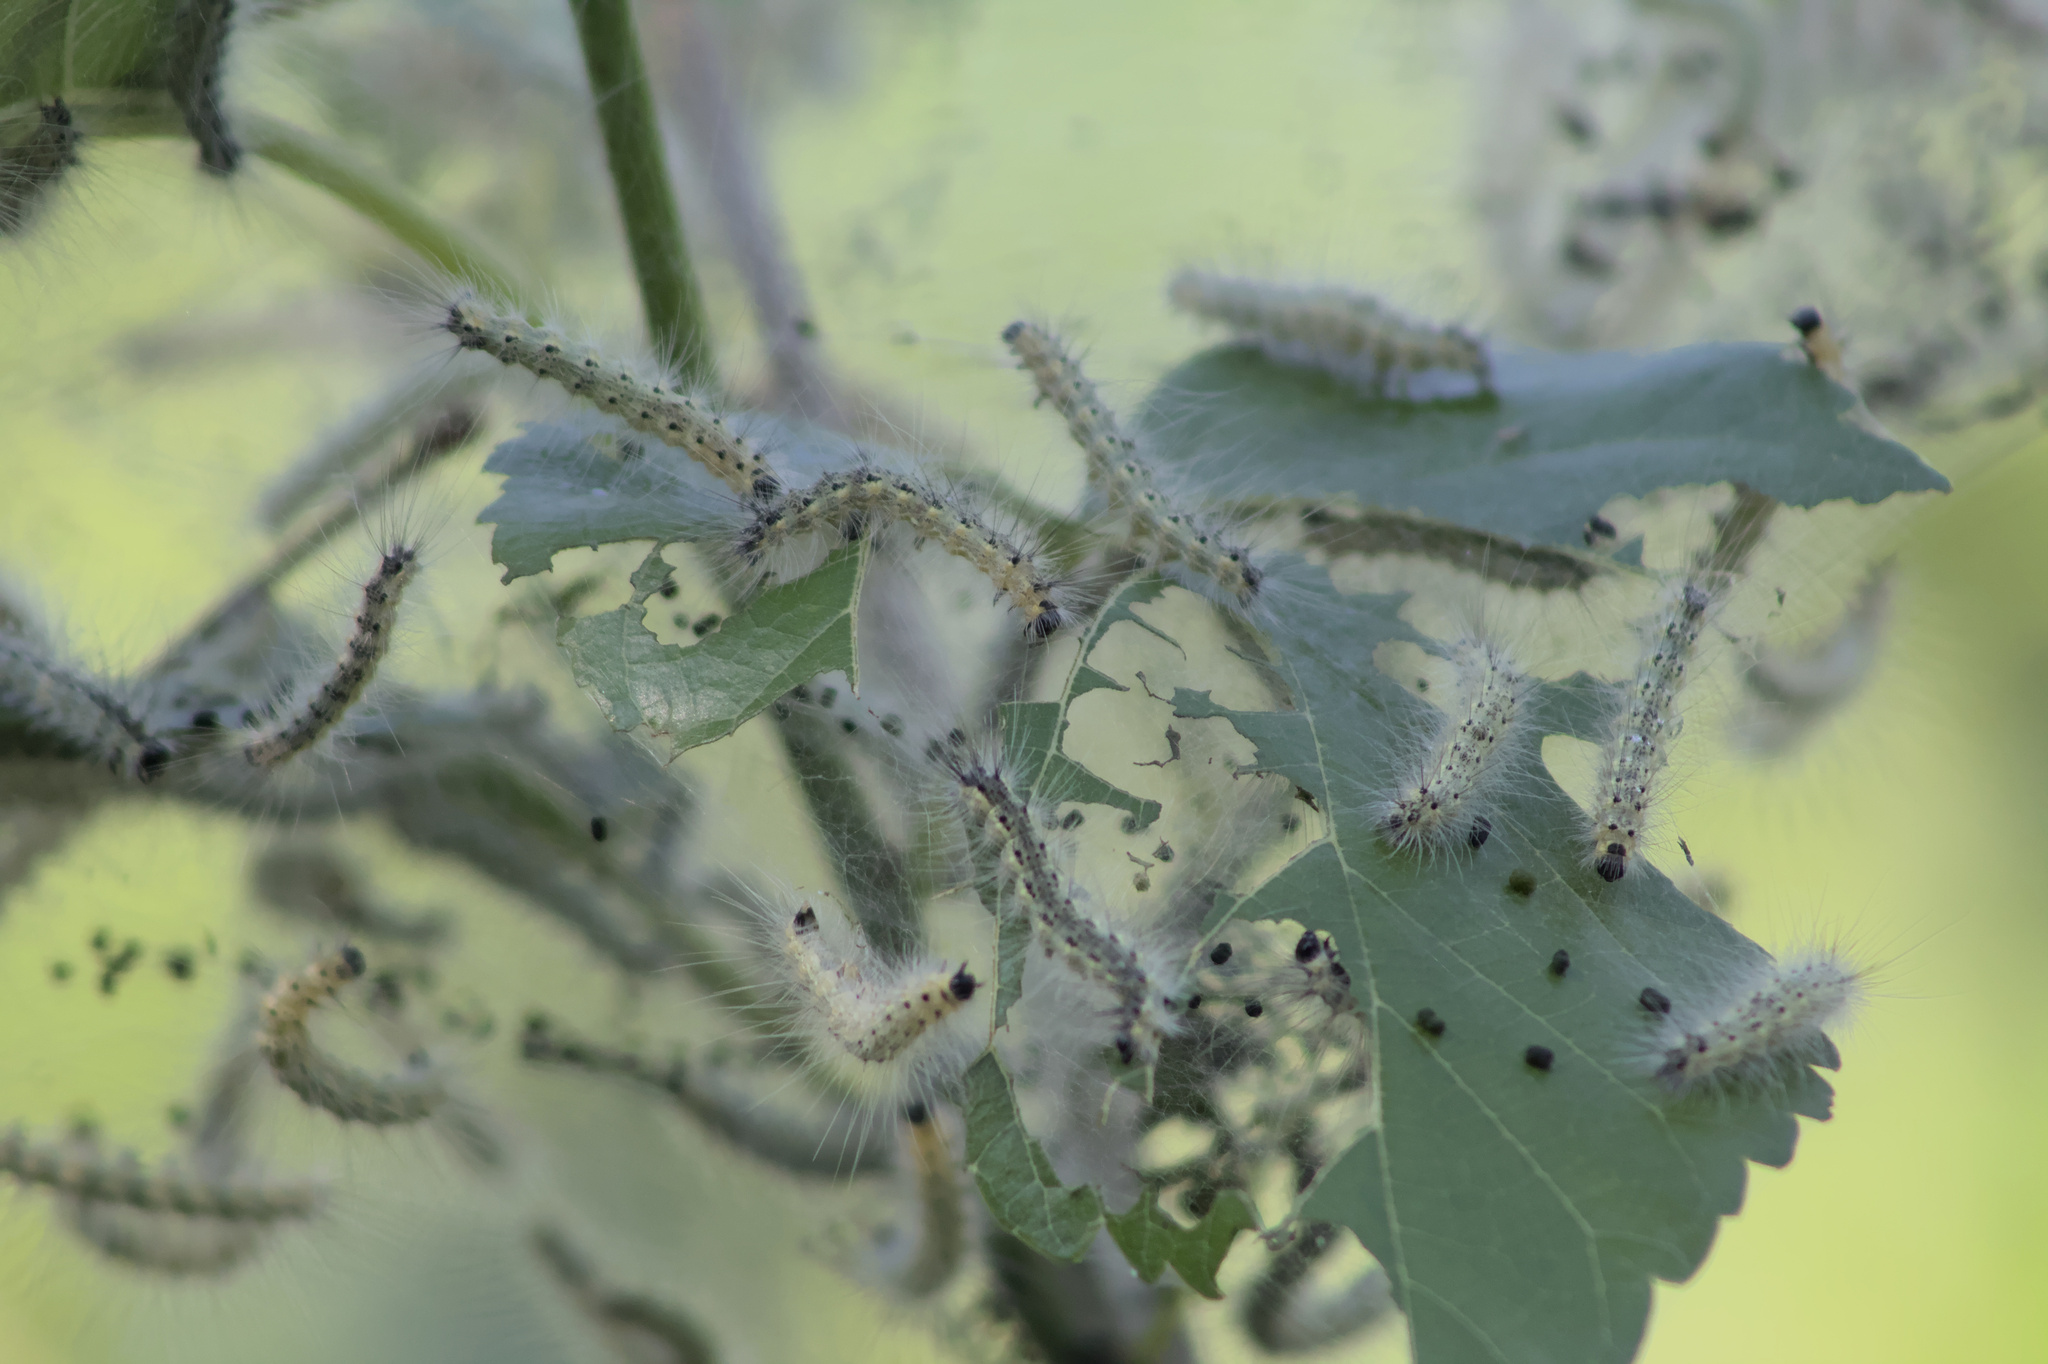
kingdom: Animalia
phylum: Arthropoda
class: Insecta
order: Lepidoptera
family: Erebidae
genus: Hyphantria
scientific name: Hyphantria cunea
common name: American white moth
